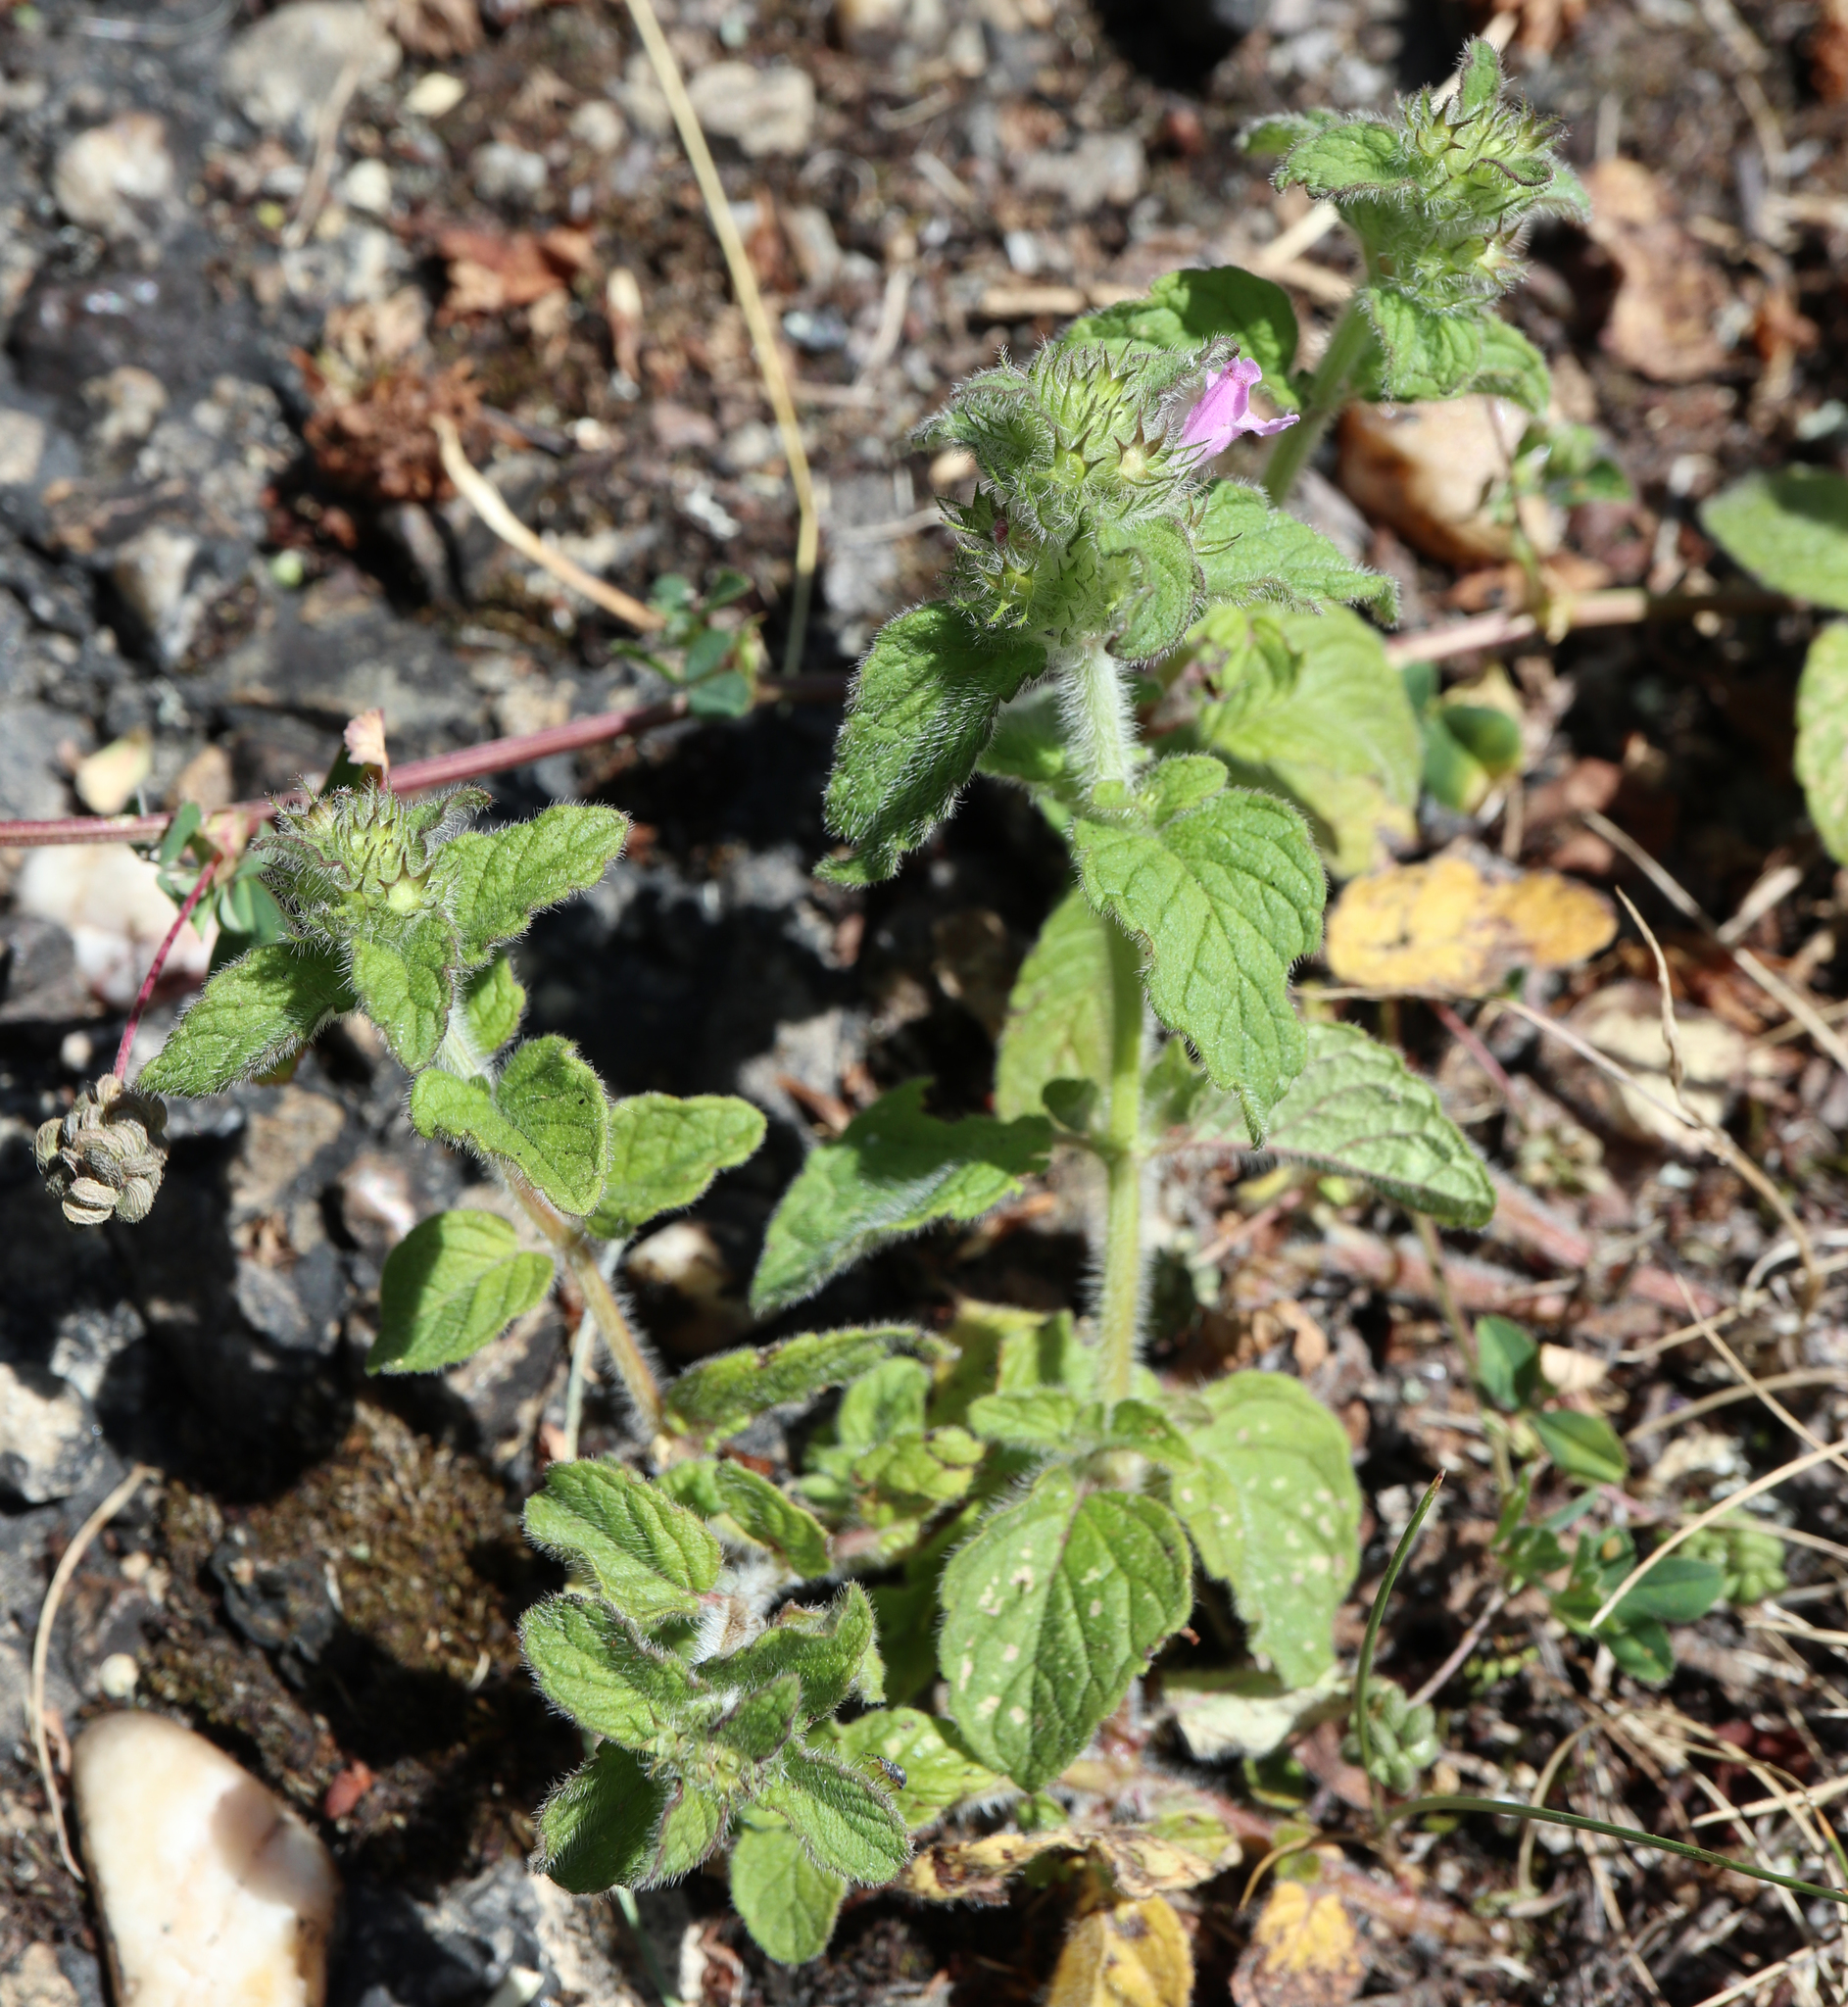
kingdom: Plantae
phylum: Tracheophyta
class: Magnoliopsida
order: Lamiales
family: Lamiaceae
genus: Clinopodium
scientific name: Clinopodium vulgare
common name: Wild basil
